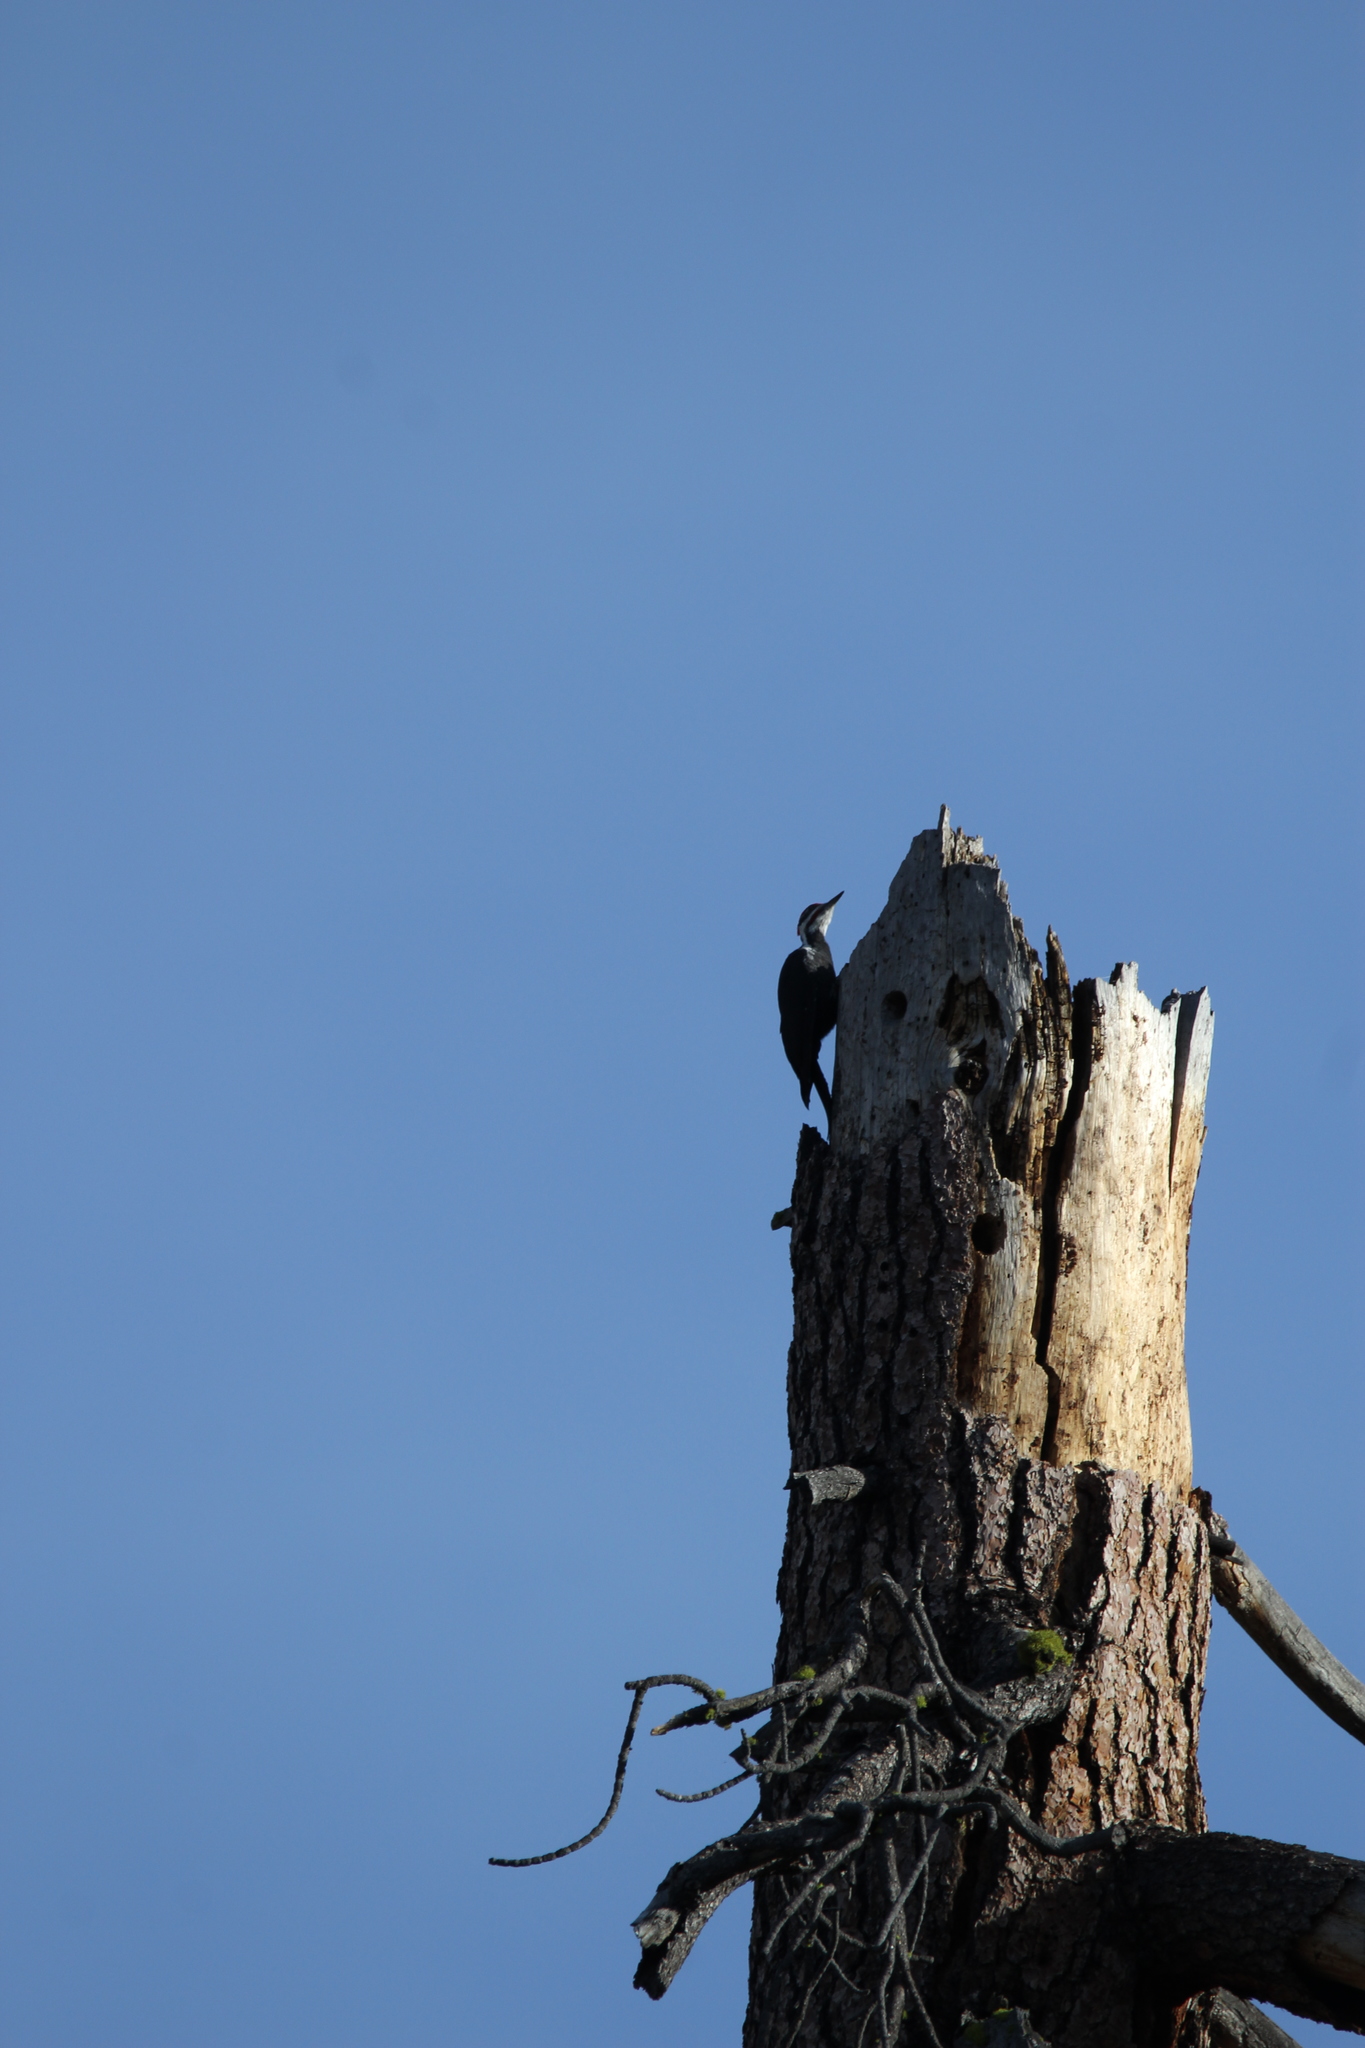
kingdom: Animalia
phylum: Chordata
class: Aves
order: Piciformes
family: Picidae
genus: Dryocopus
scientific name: Dryocopus pileatus
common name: Pileated woodpecker
